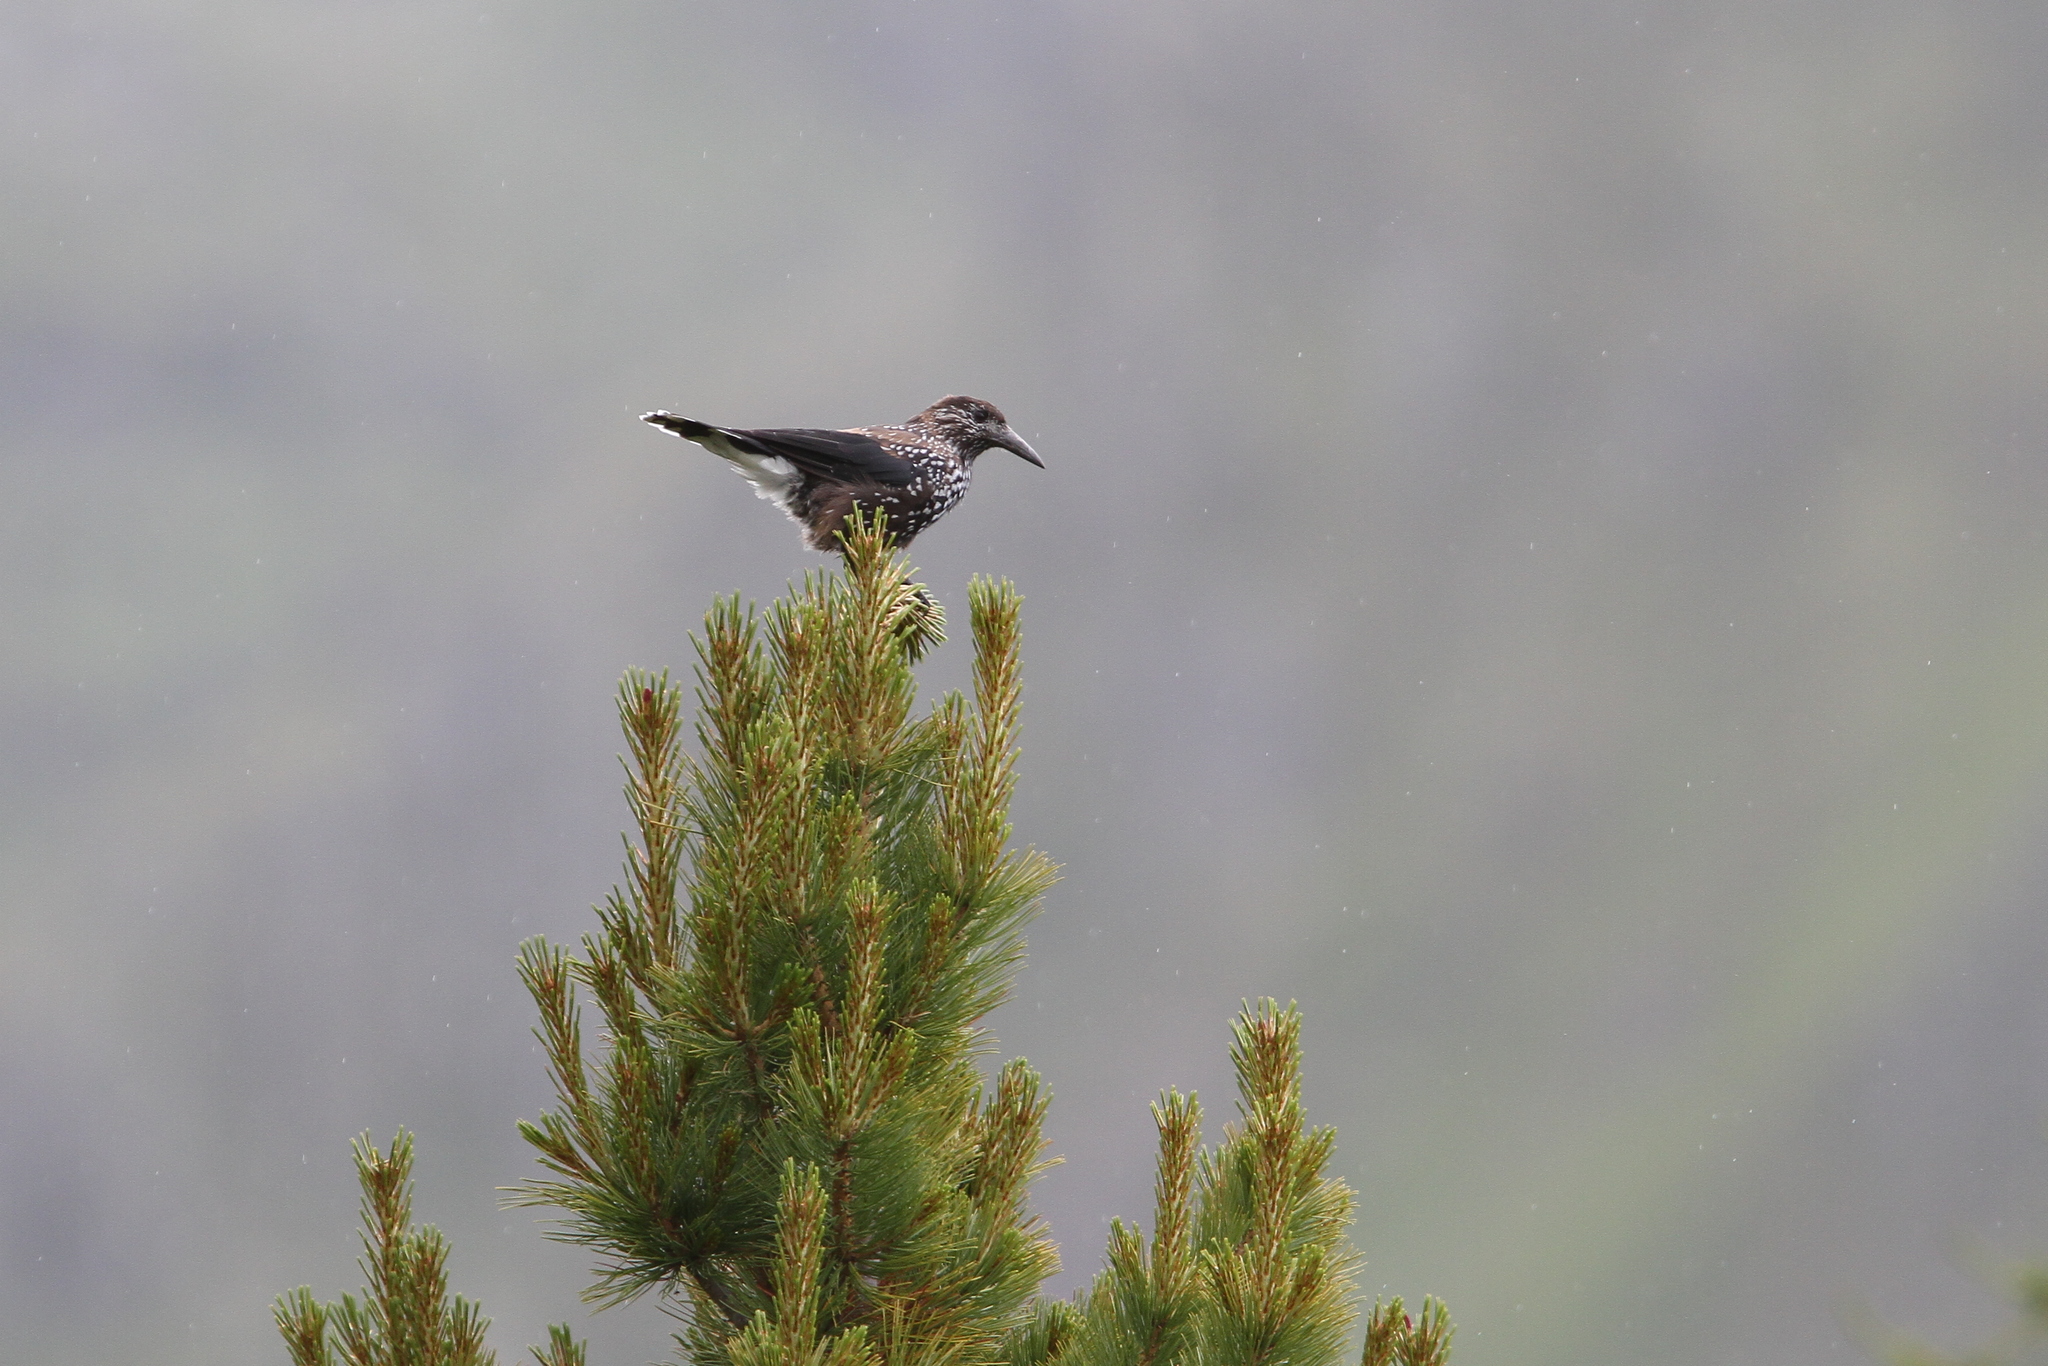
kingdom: Animalia
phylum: Chordata
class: Aves
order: Passeriformes
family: Corvidae
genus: Nucifraga
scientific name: Nucifraga caryocatactes
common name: Spotted nutcracker
